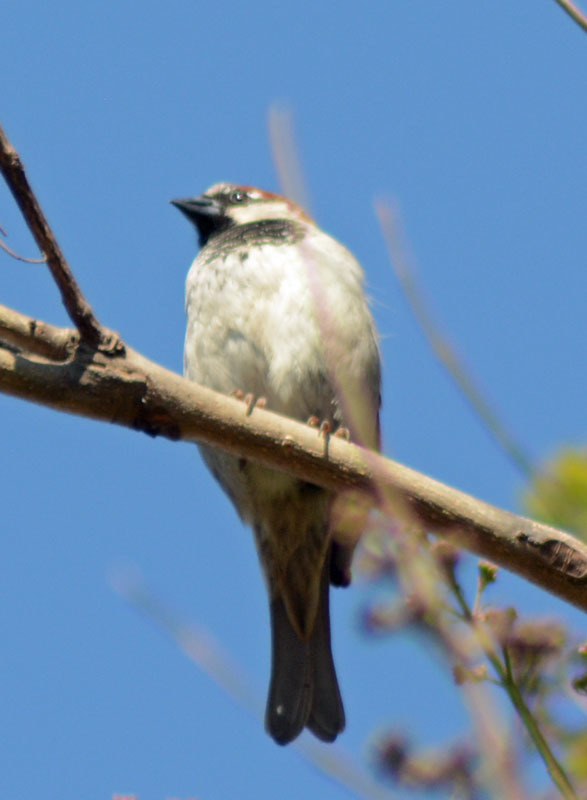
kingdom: Animalia
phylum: Chordata
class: Aves
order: Passeriformes
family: Passeridae
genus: Passer
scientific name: Passer domesticus
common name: House sparrow
